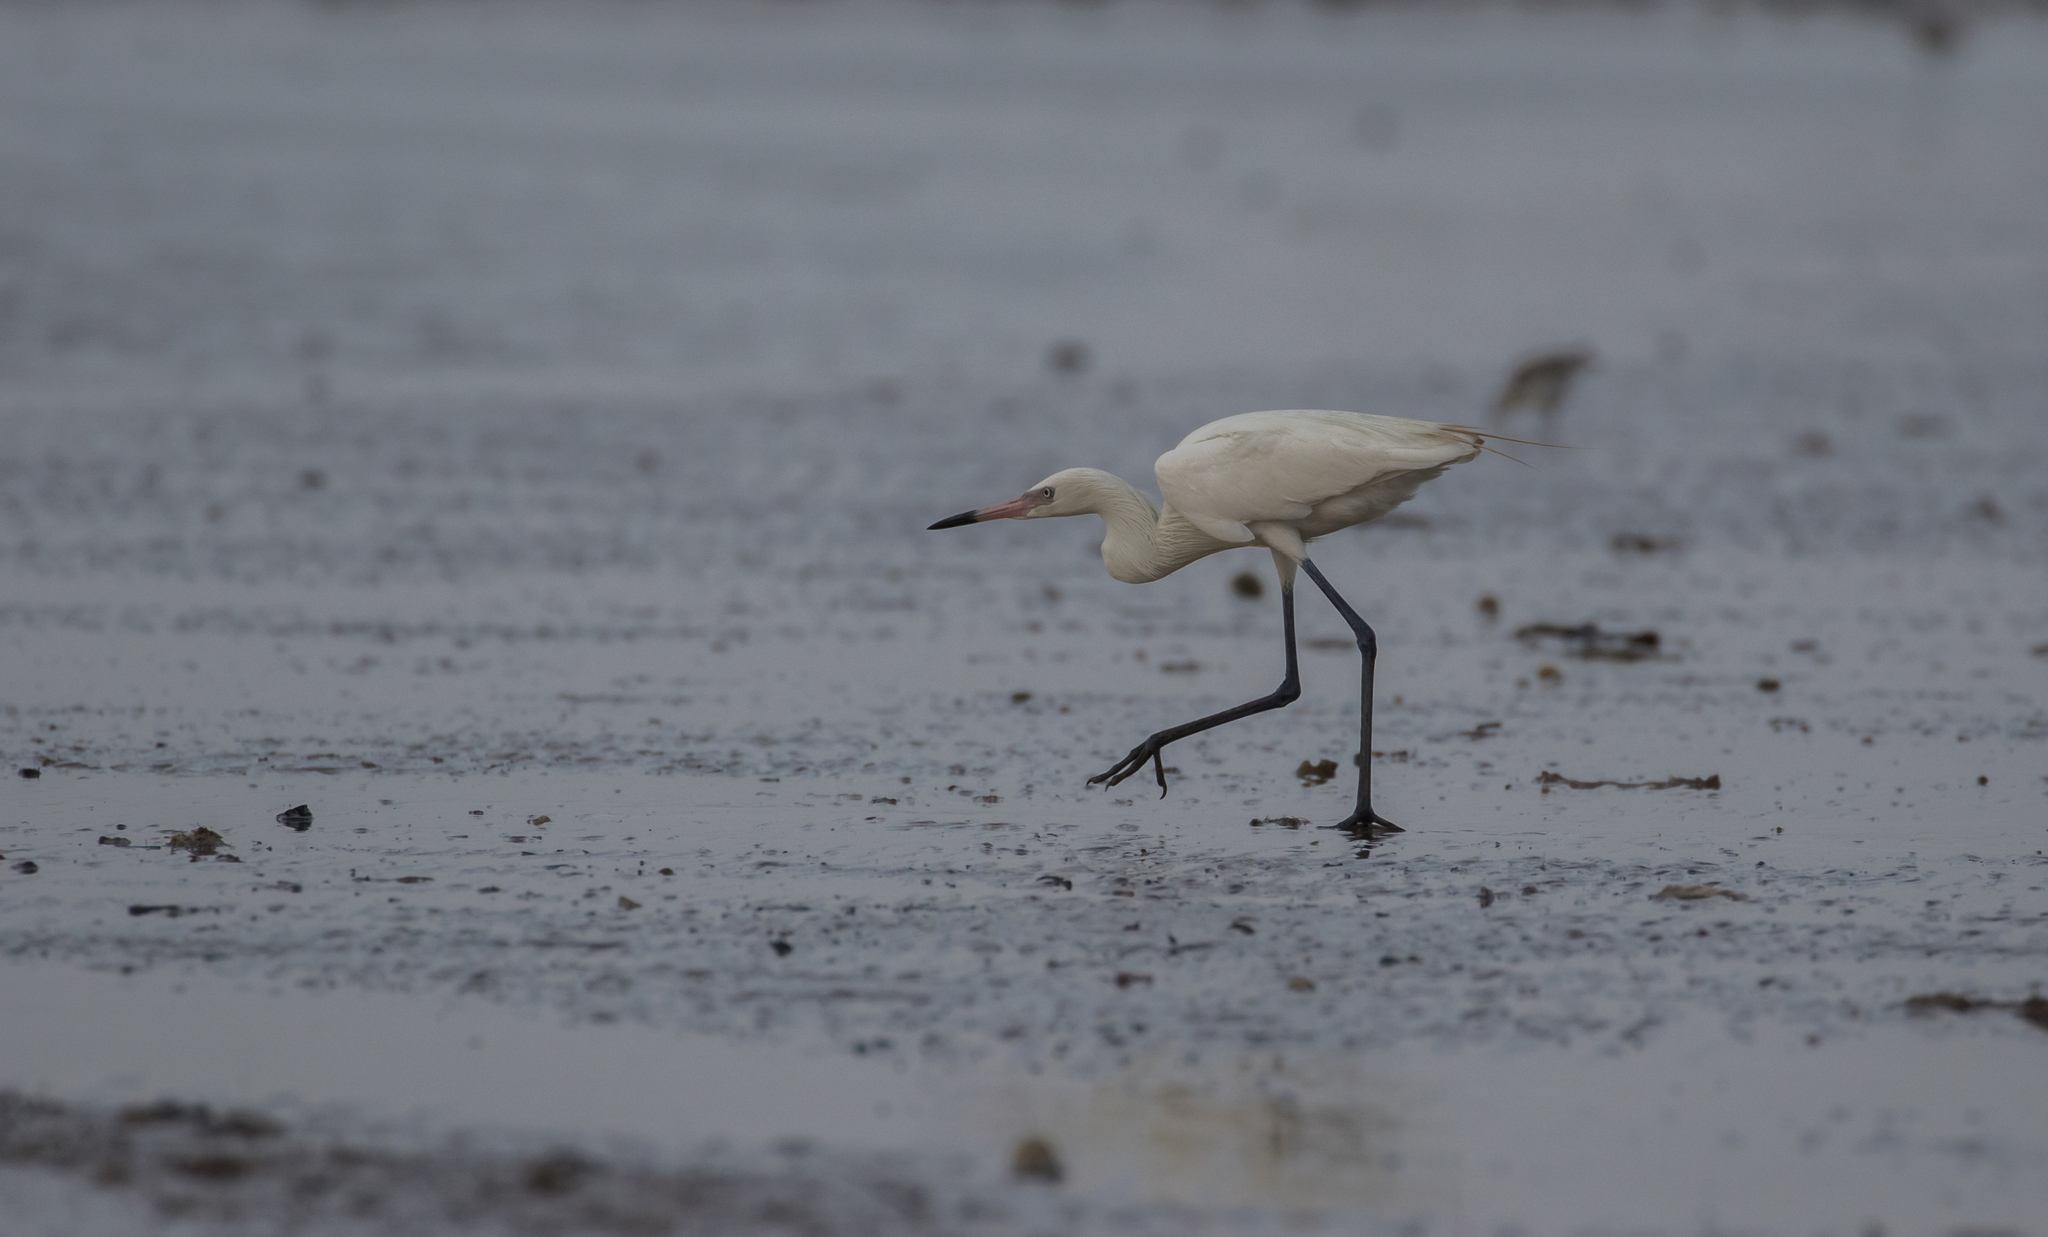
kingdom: Animalia
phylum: Chordata
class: Aves
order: Pelecaniformes
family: Ardeidae
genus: Egretta
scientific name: Egretta rufescens
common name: Reddish egret
